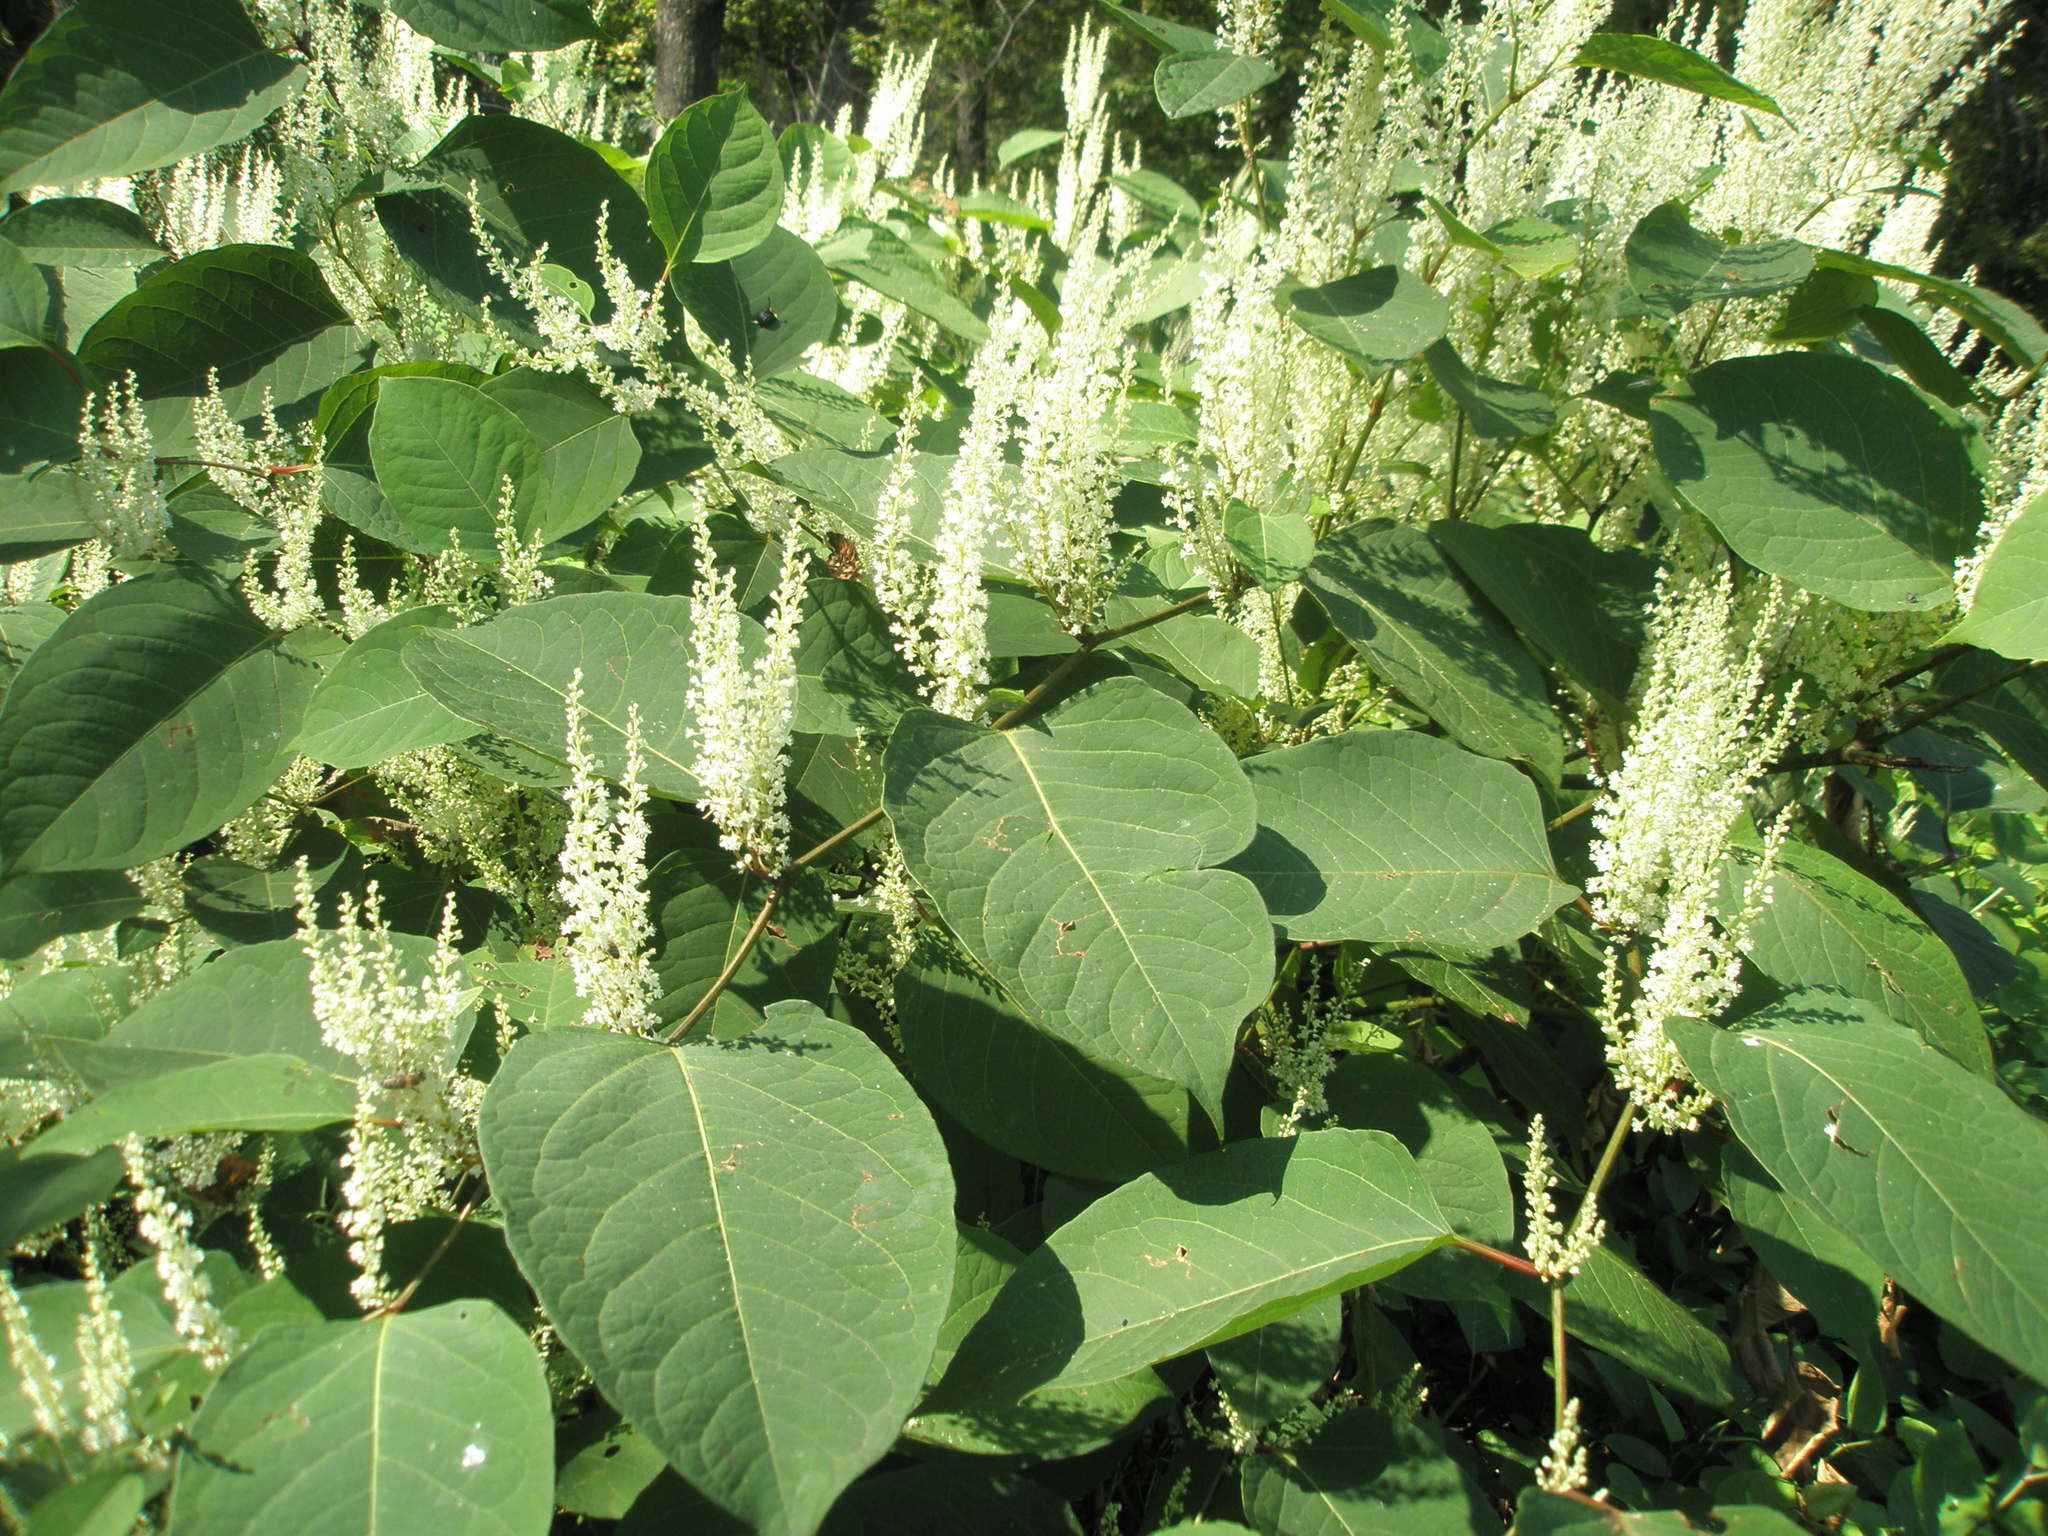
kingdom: Plantae
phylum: Tracheophyta
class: Magnoliopsida
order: Caryophyllales
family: Polygonaceae
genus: Reynoutria
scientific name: Reynoutria japonica
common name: Japanese knotweed
